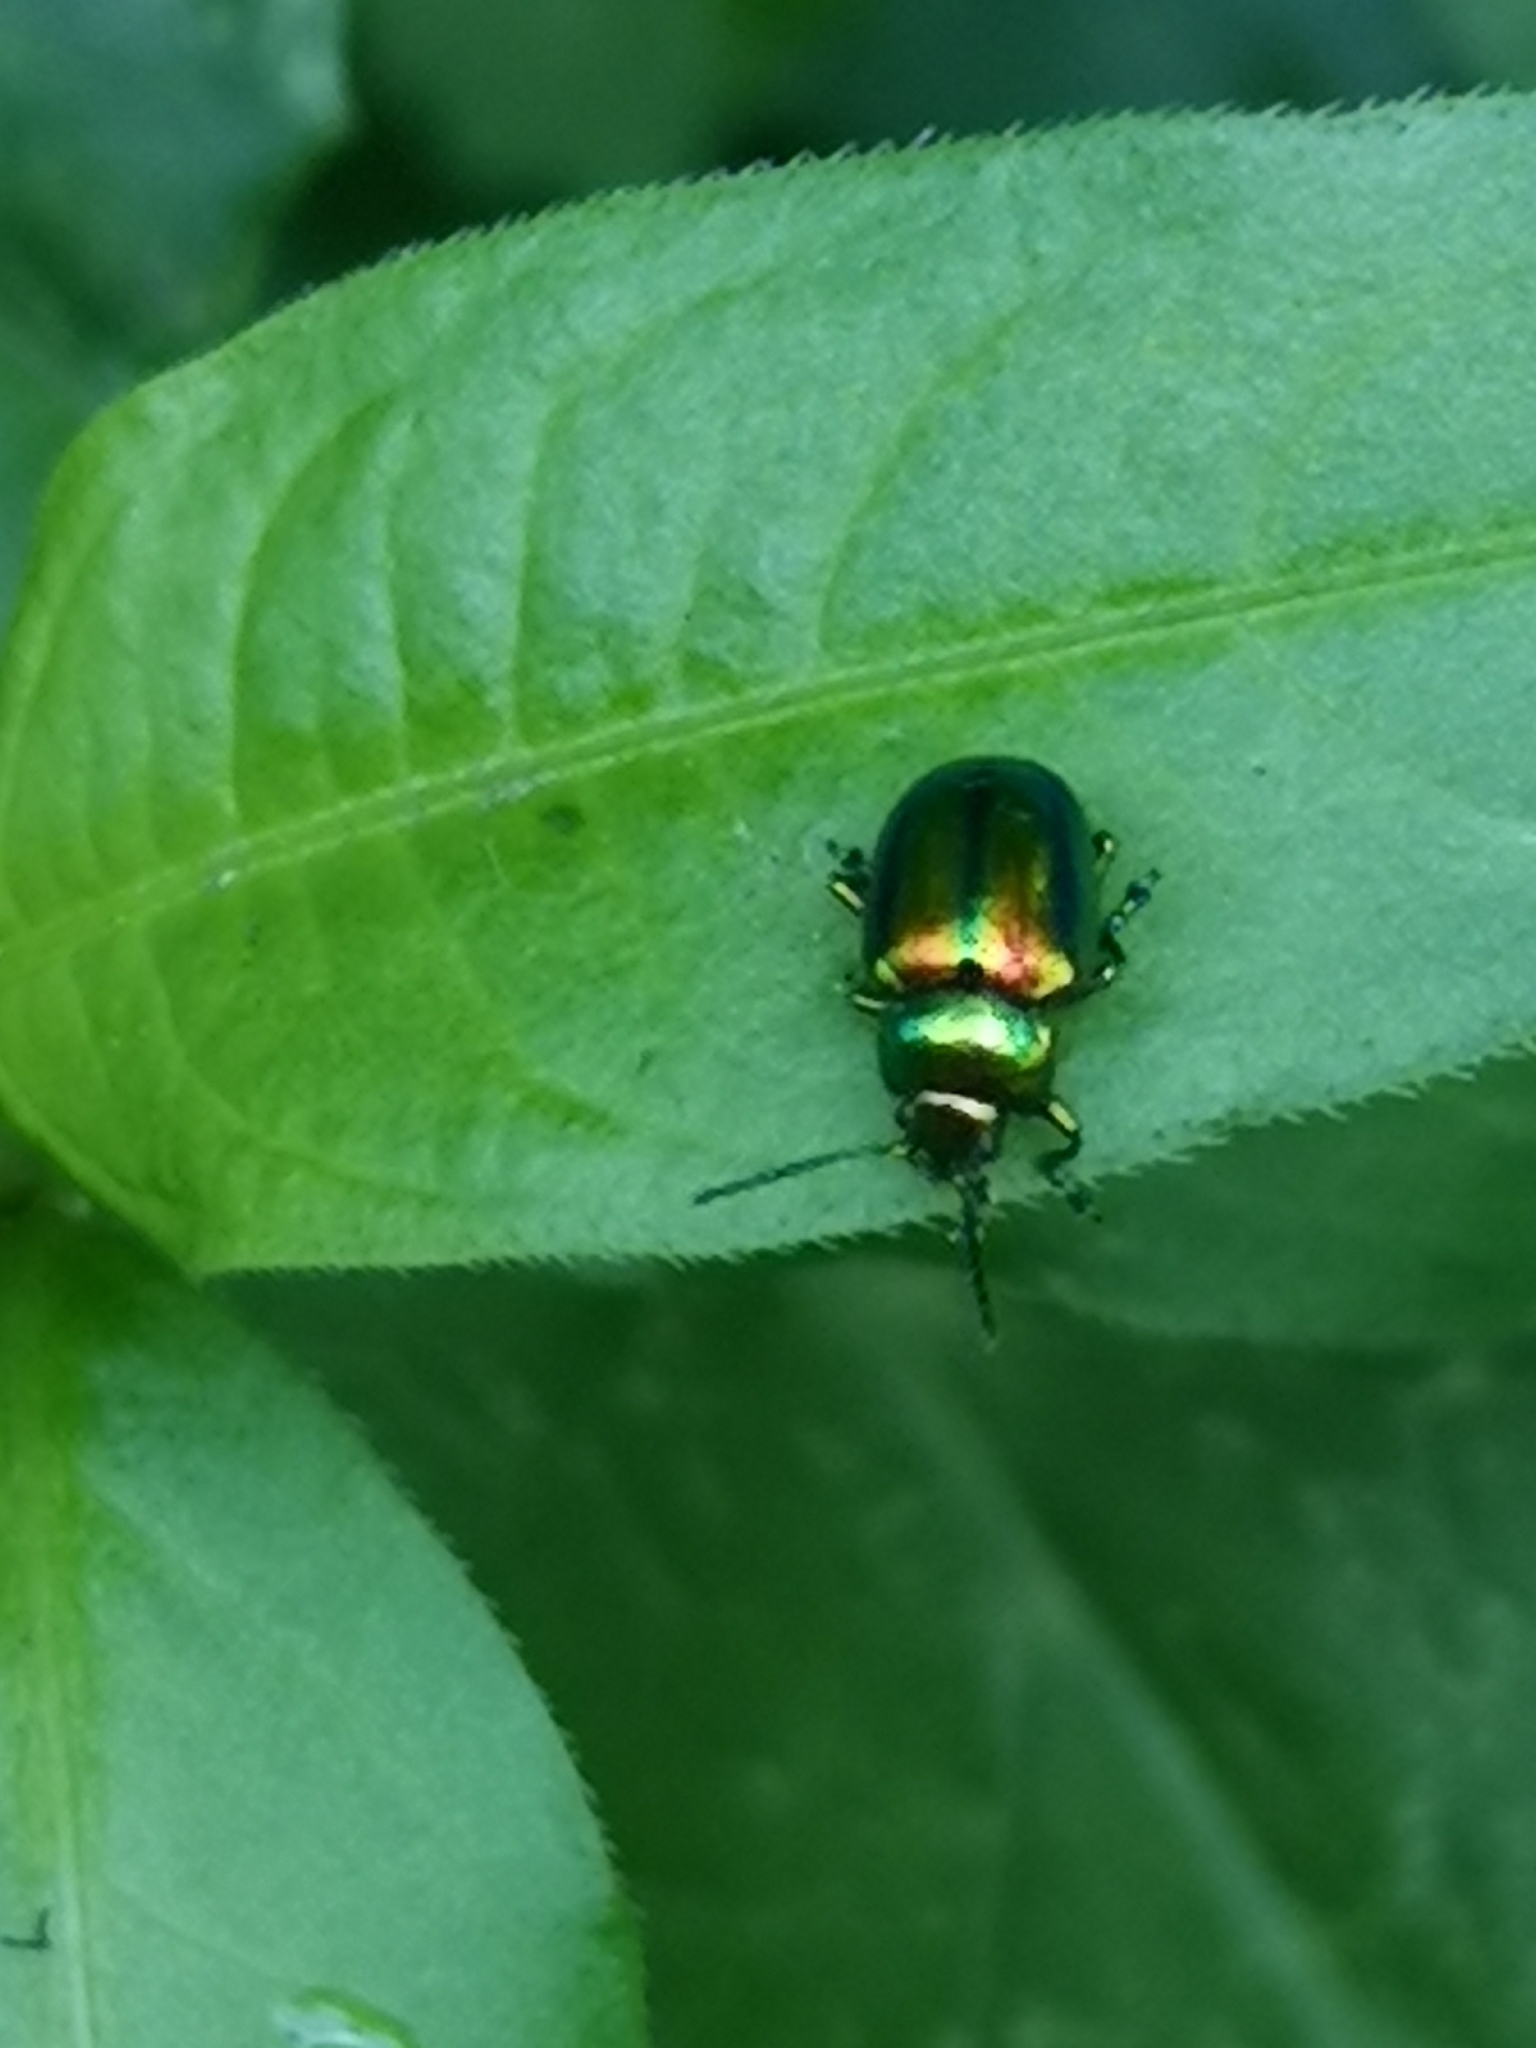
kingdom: Animalia
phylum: Arthropoda
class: Insecta
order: Coleoptera
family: Chrysomelidae
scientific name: Chrysomelidae
